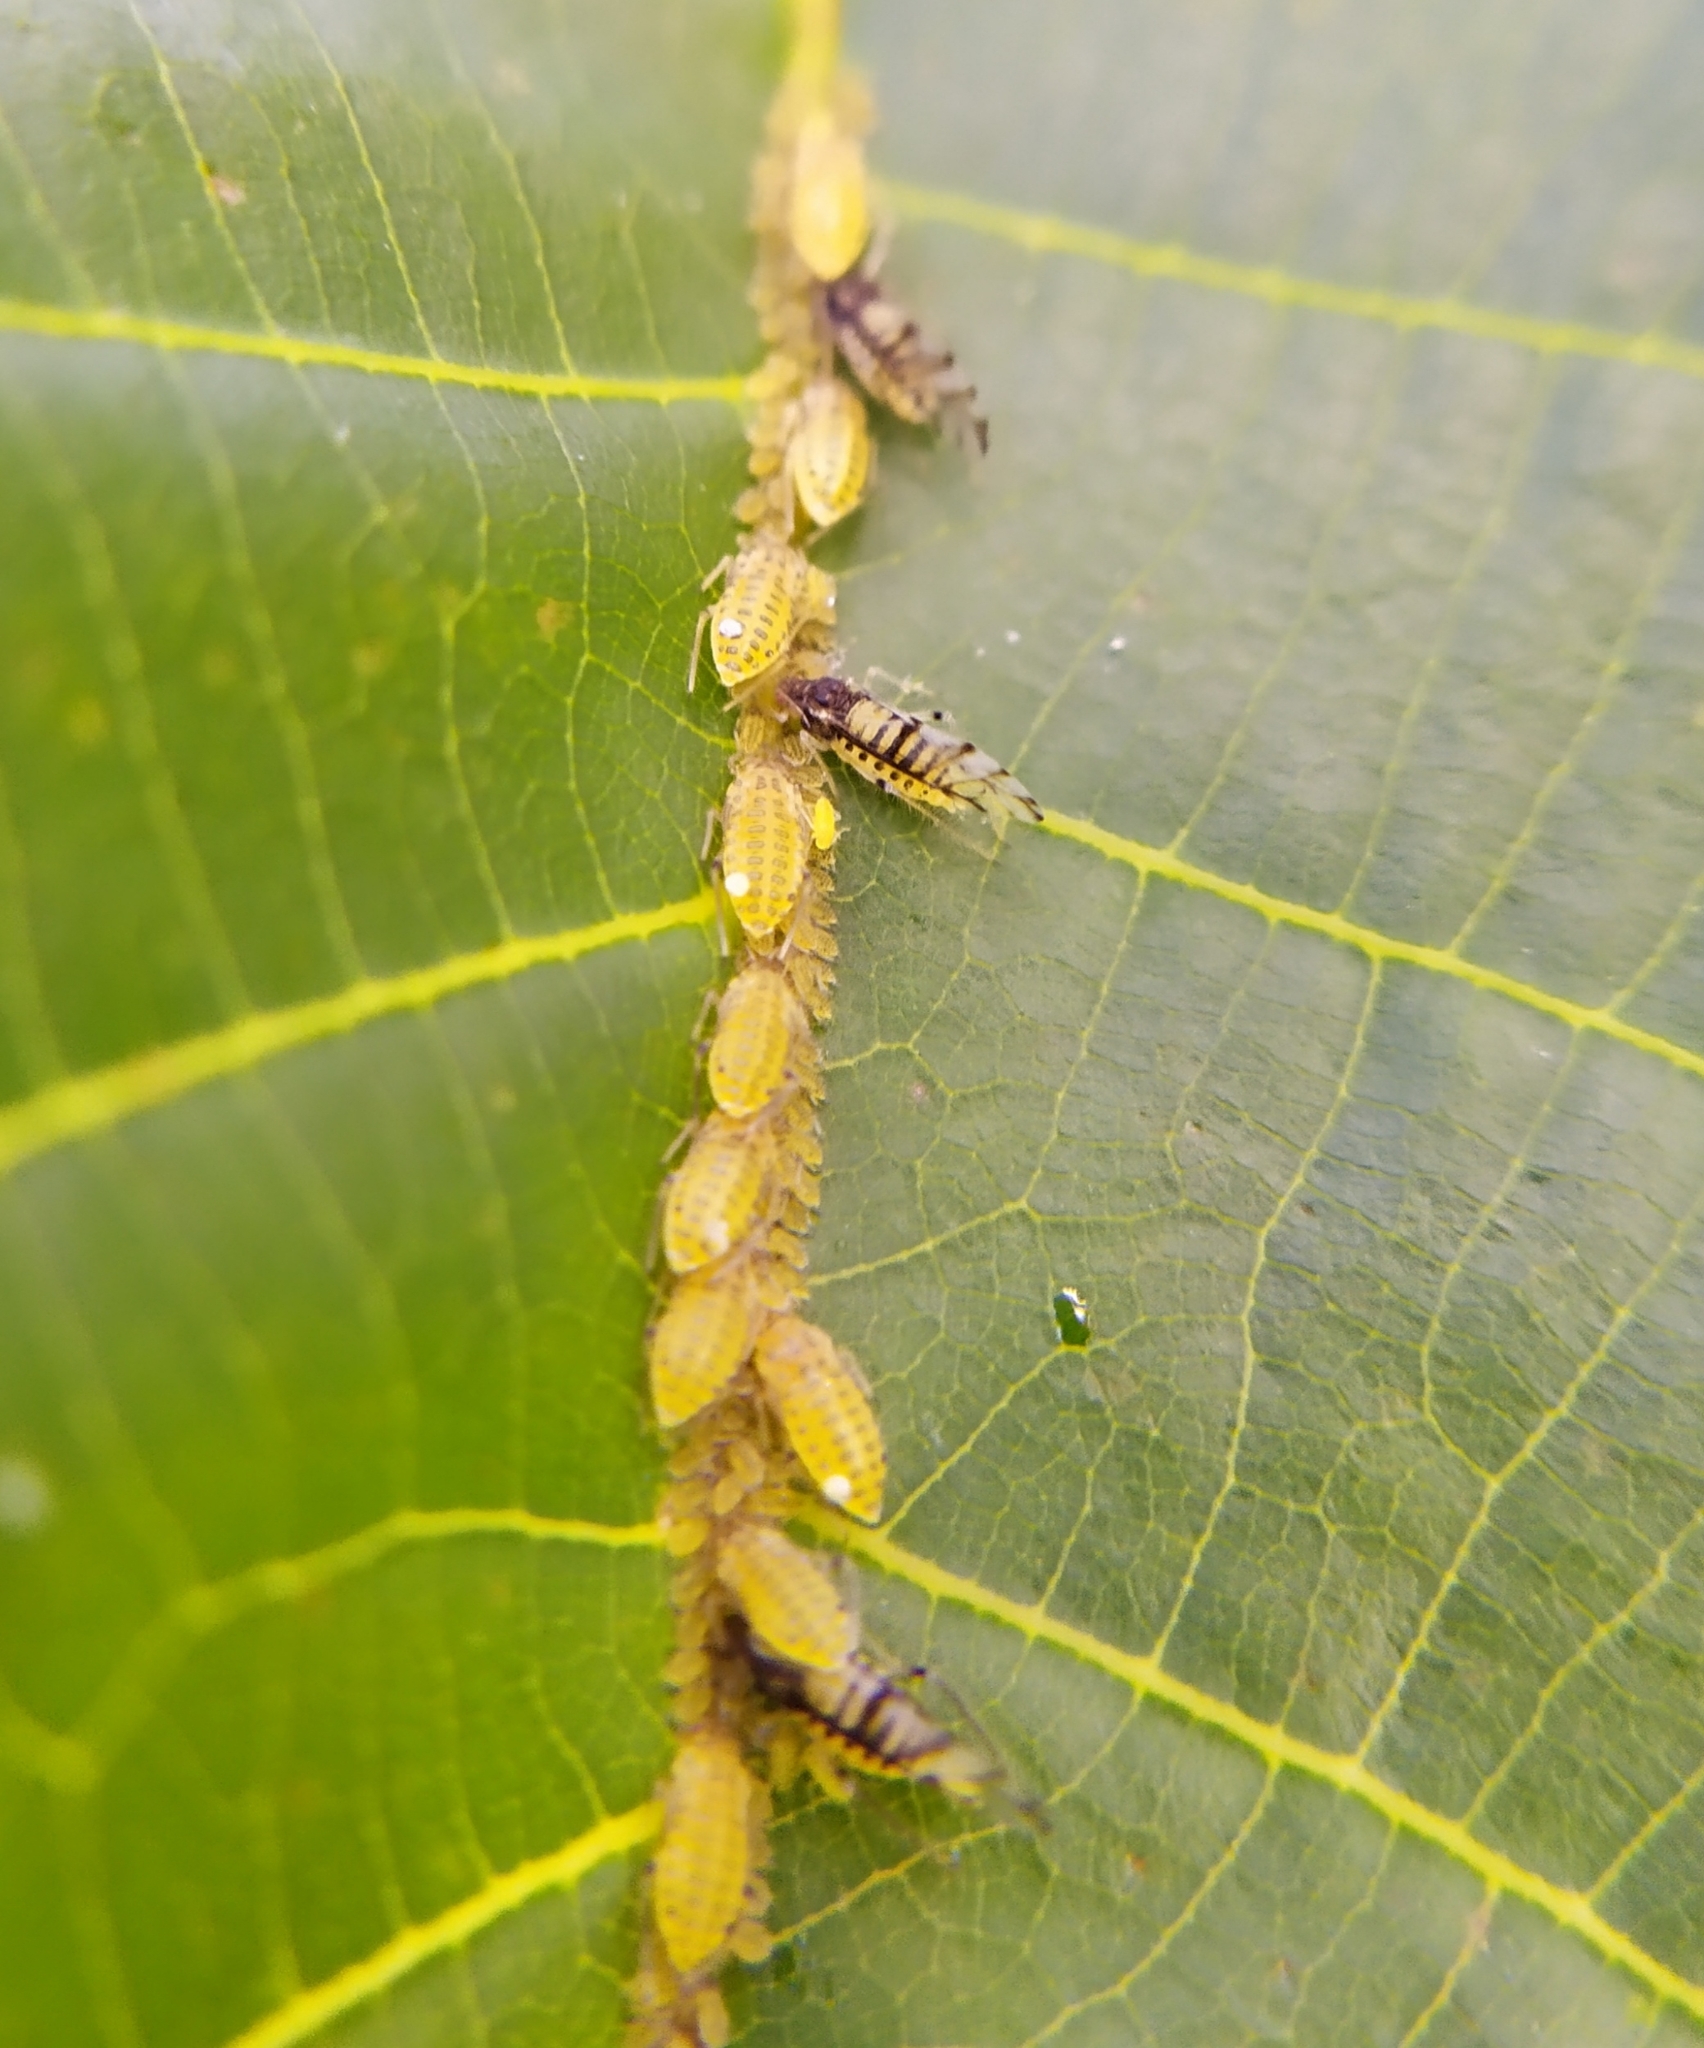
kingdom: Animalia
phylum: Arthropoda
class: Insecta
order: Hemiptera
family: Aphididae
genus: Panaphis
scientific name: Panaphis juglandis
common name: Large walnut aphid
